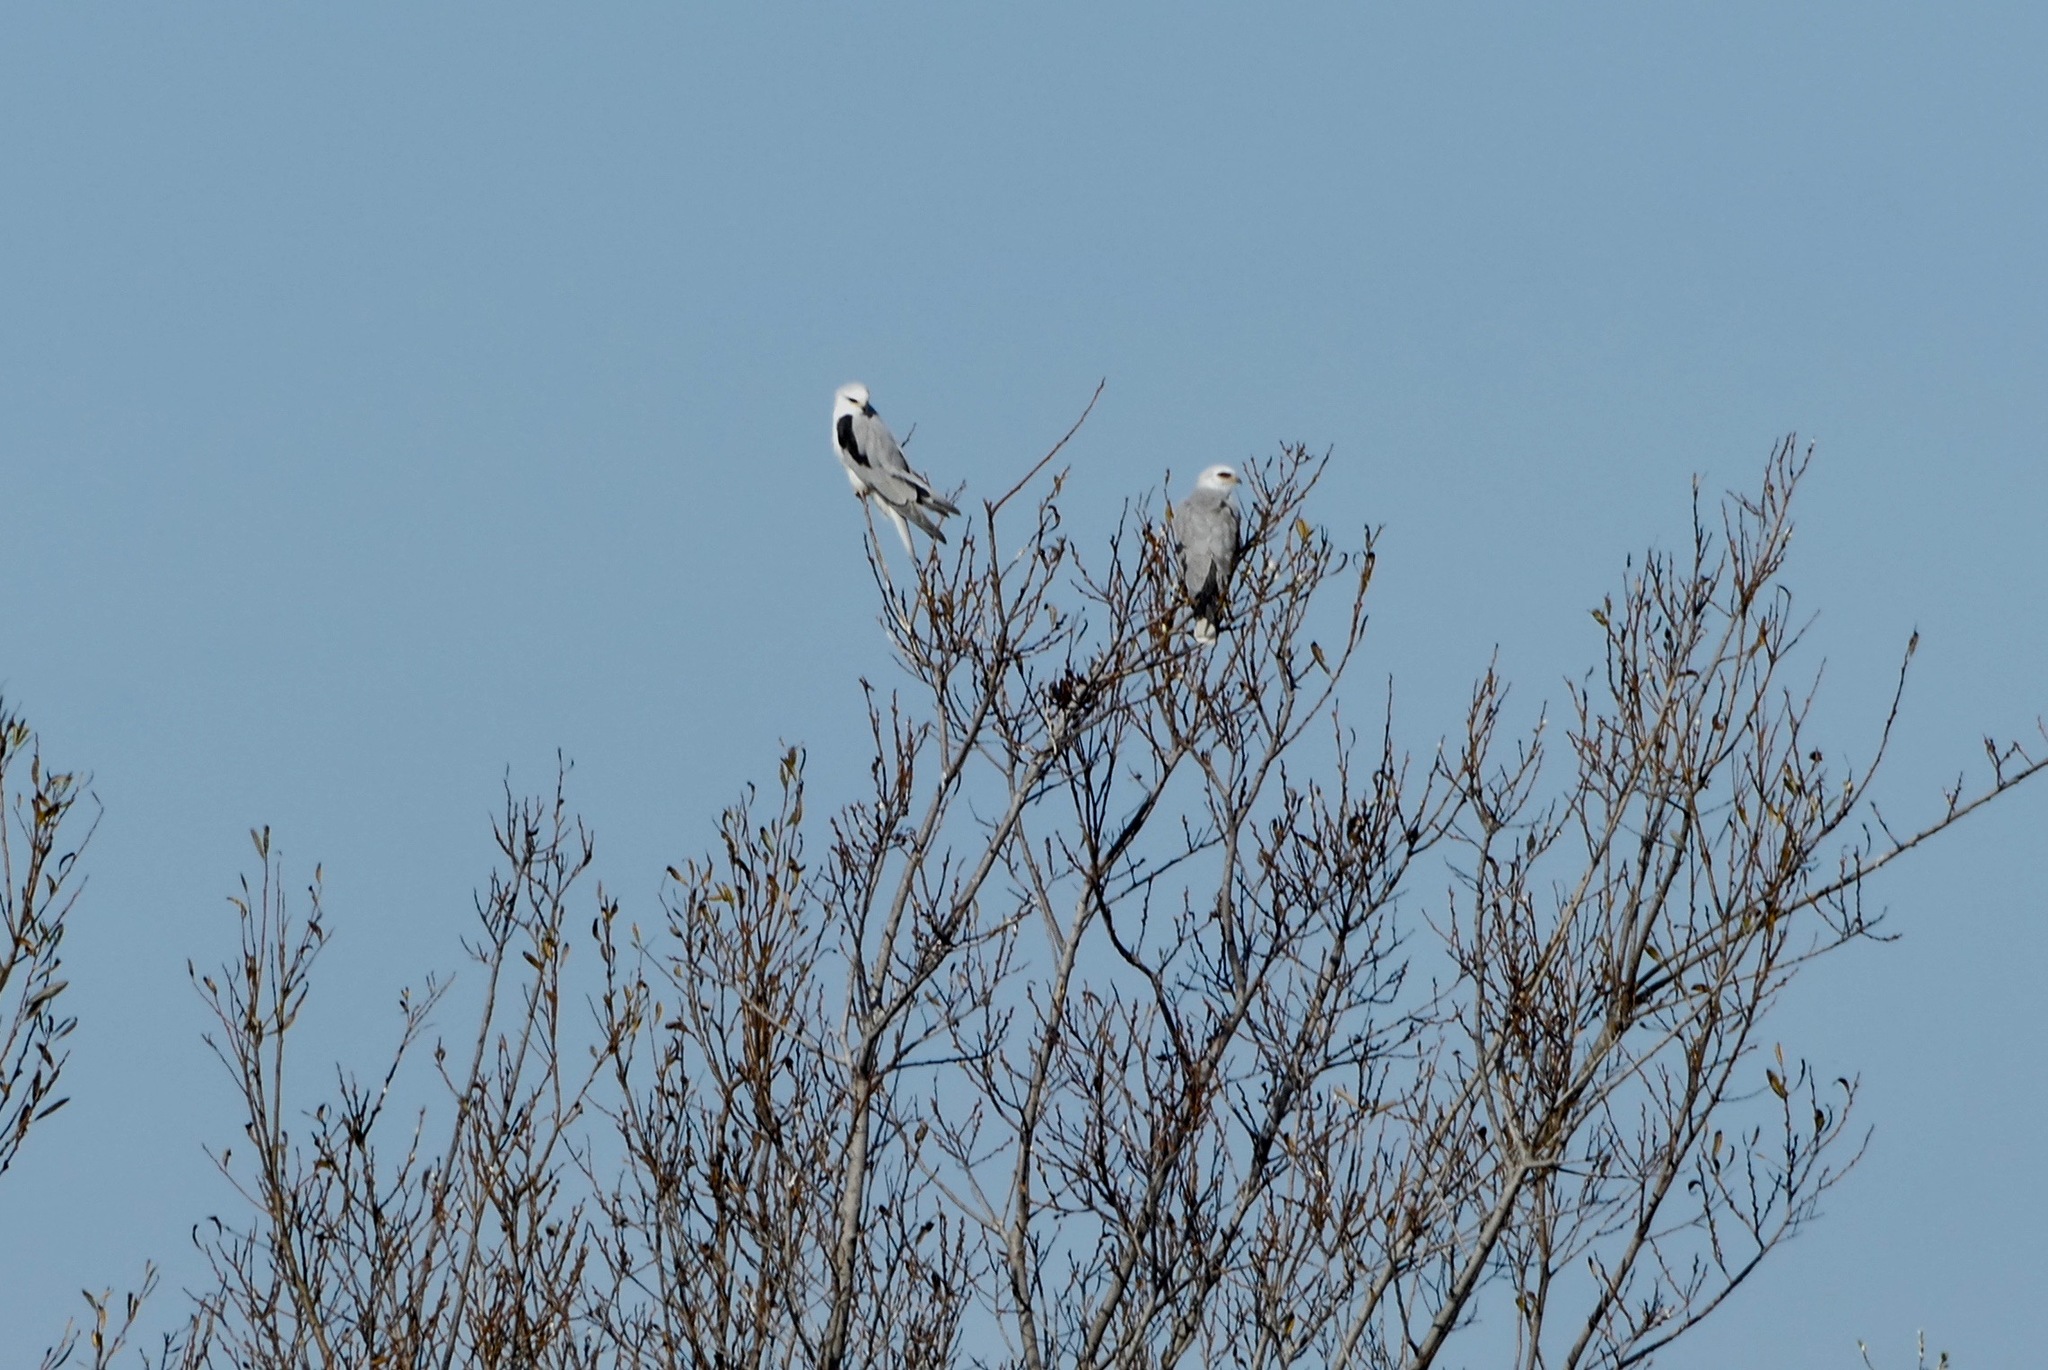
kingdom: Animalia
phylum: Chordata
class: Aves
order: Accipitriformes
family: Accipitridae
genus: Elanus
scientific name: Elanus leucurus
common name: White-tailed kite
